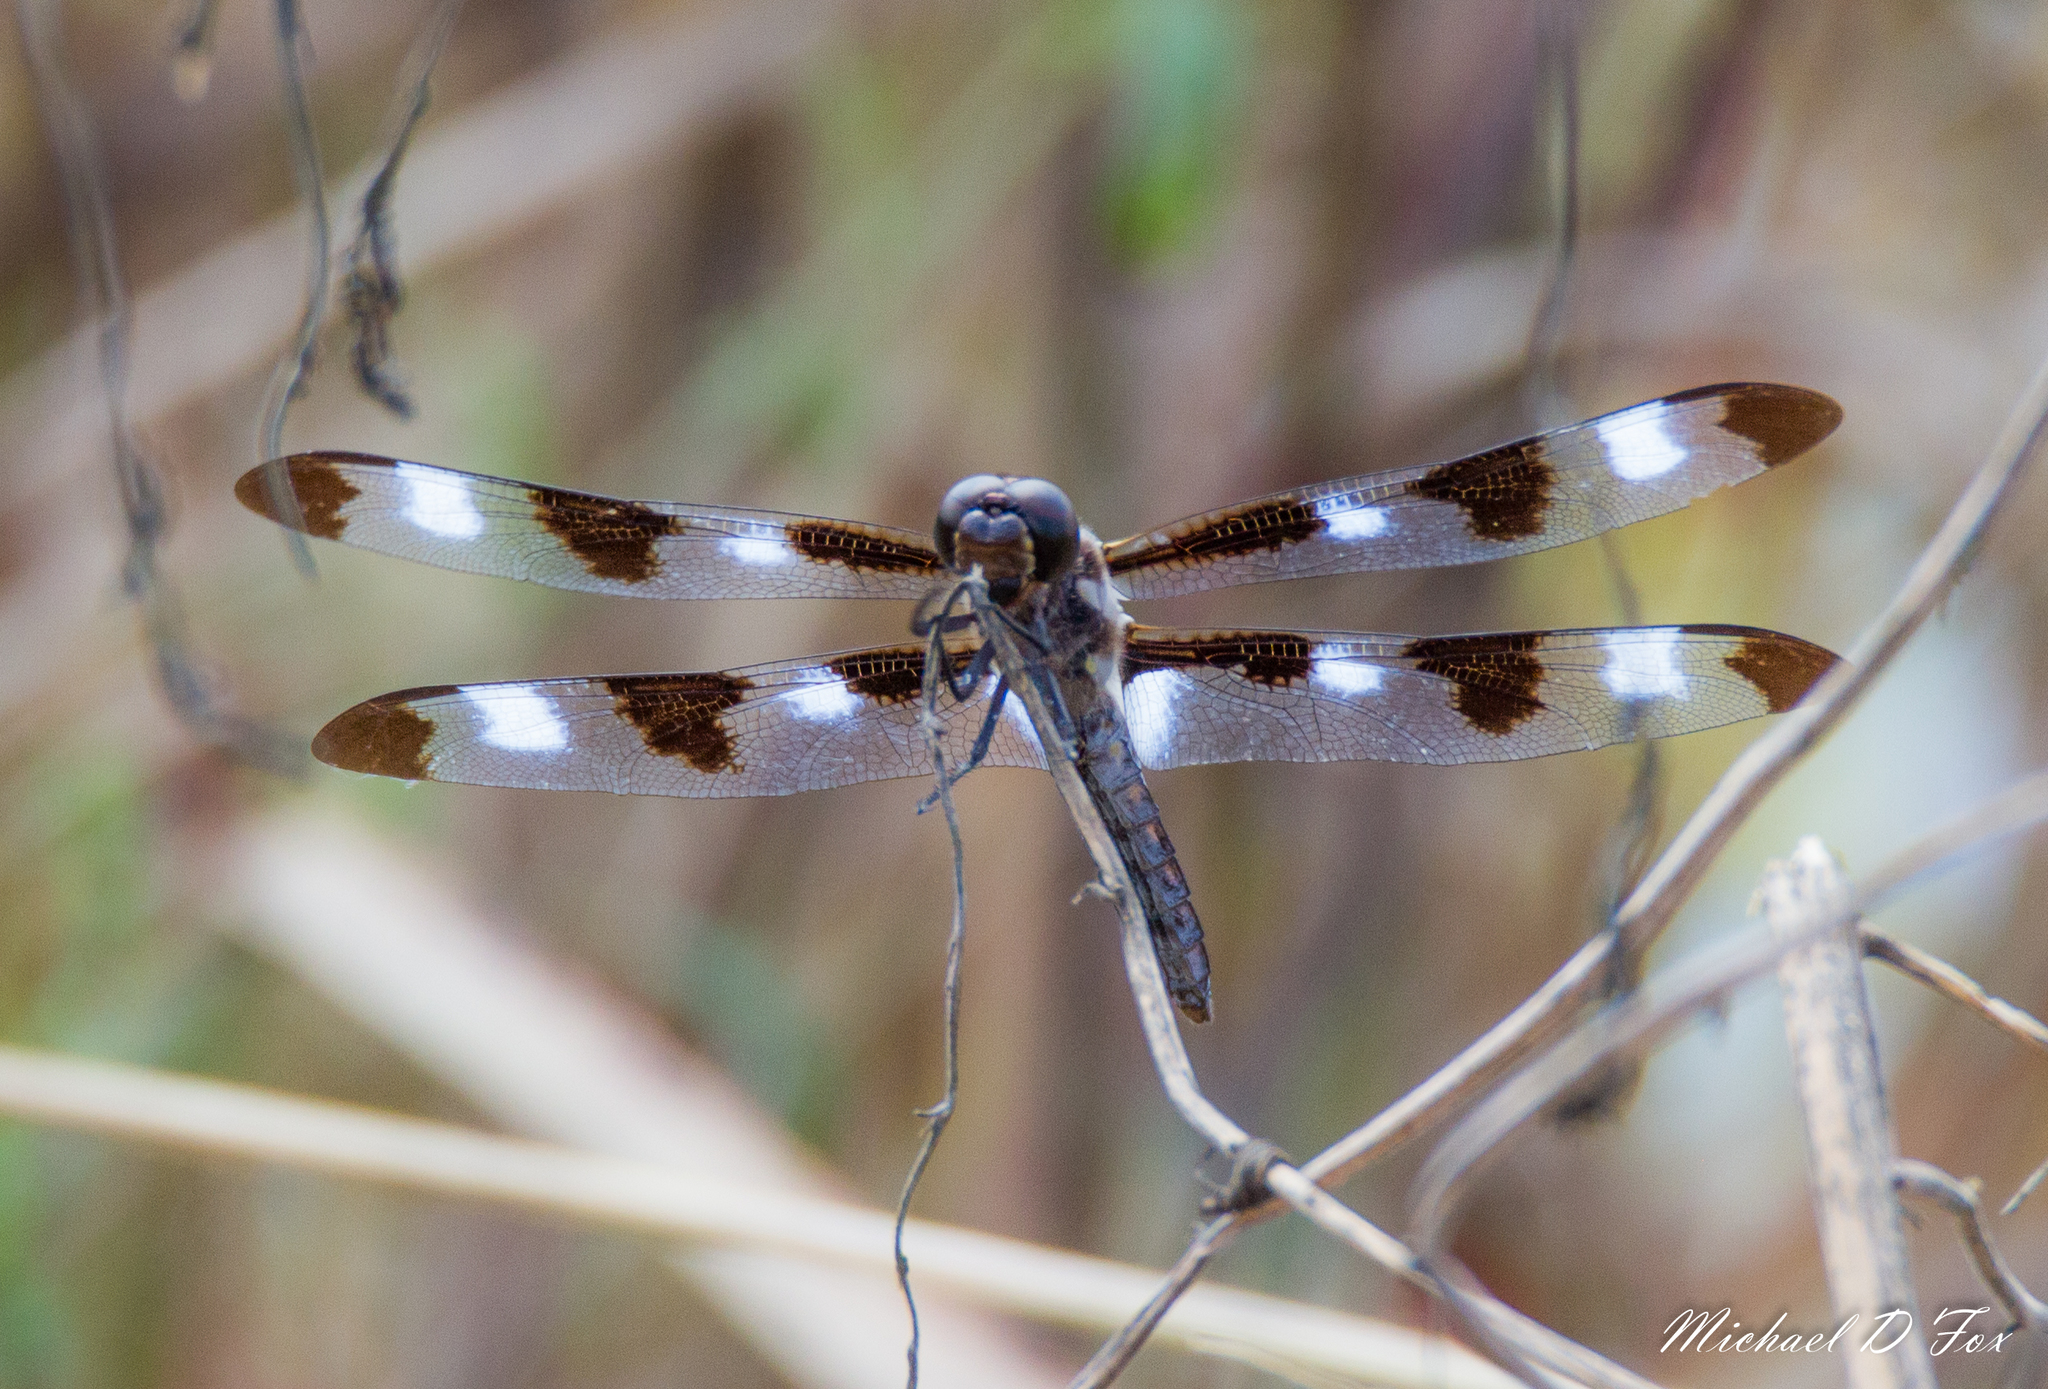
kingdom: Animalia
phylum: Arthropoda
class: Insecta
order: Odonata
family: Libellulidae
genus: Libellula
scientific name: Libellula pulchella
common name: Twelve-spotted skimmer
